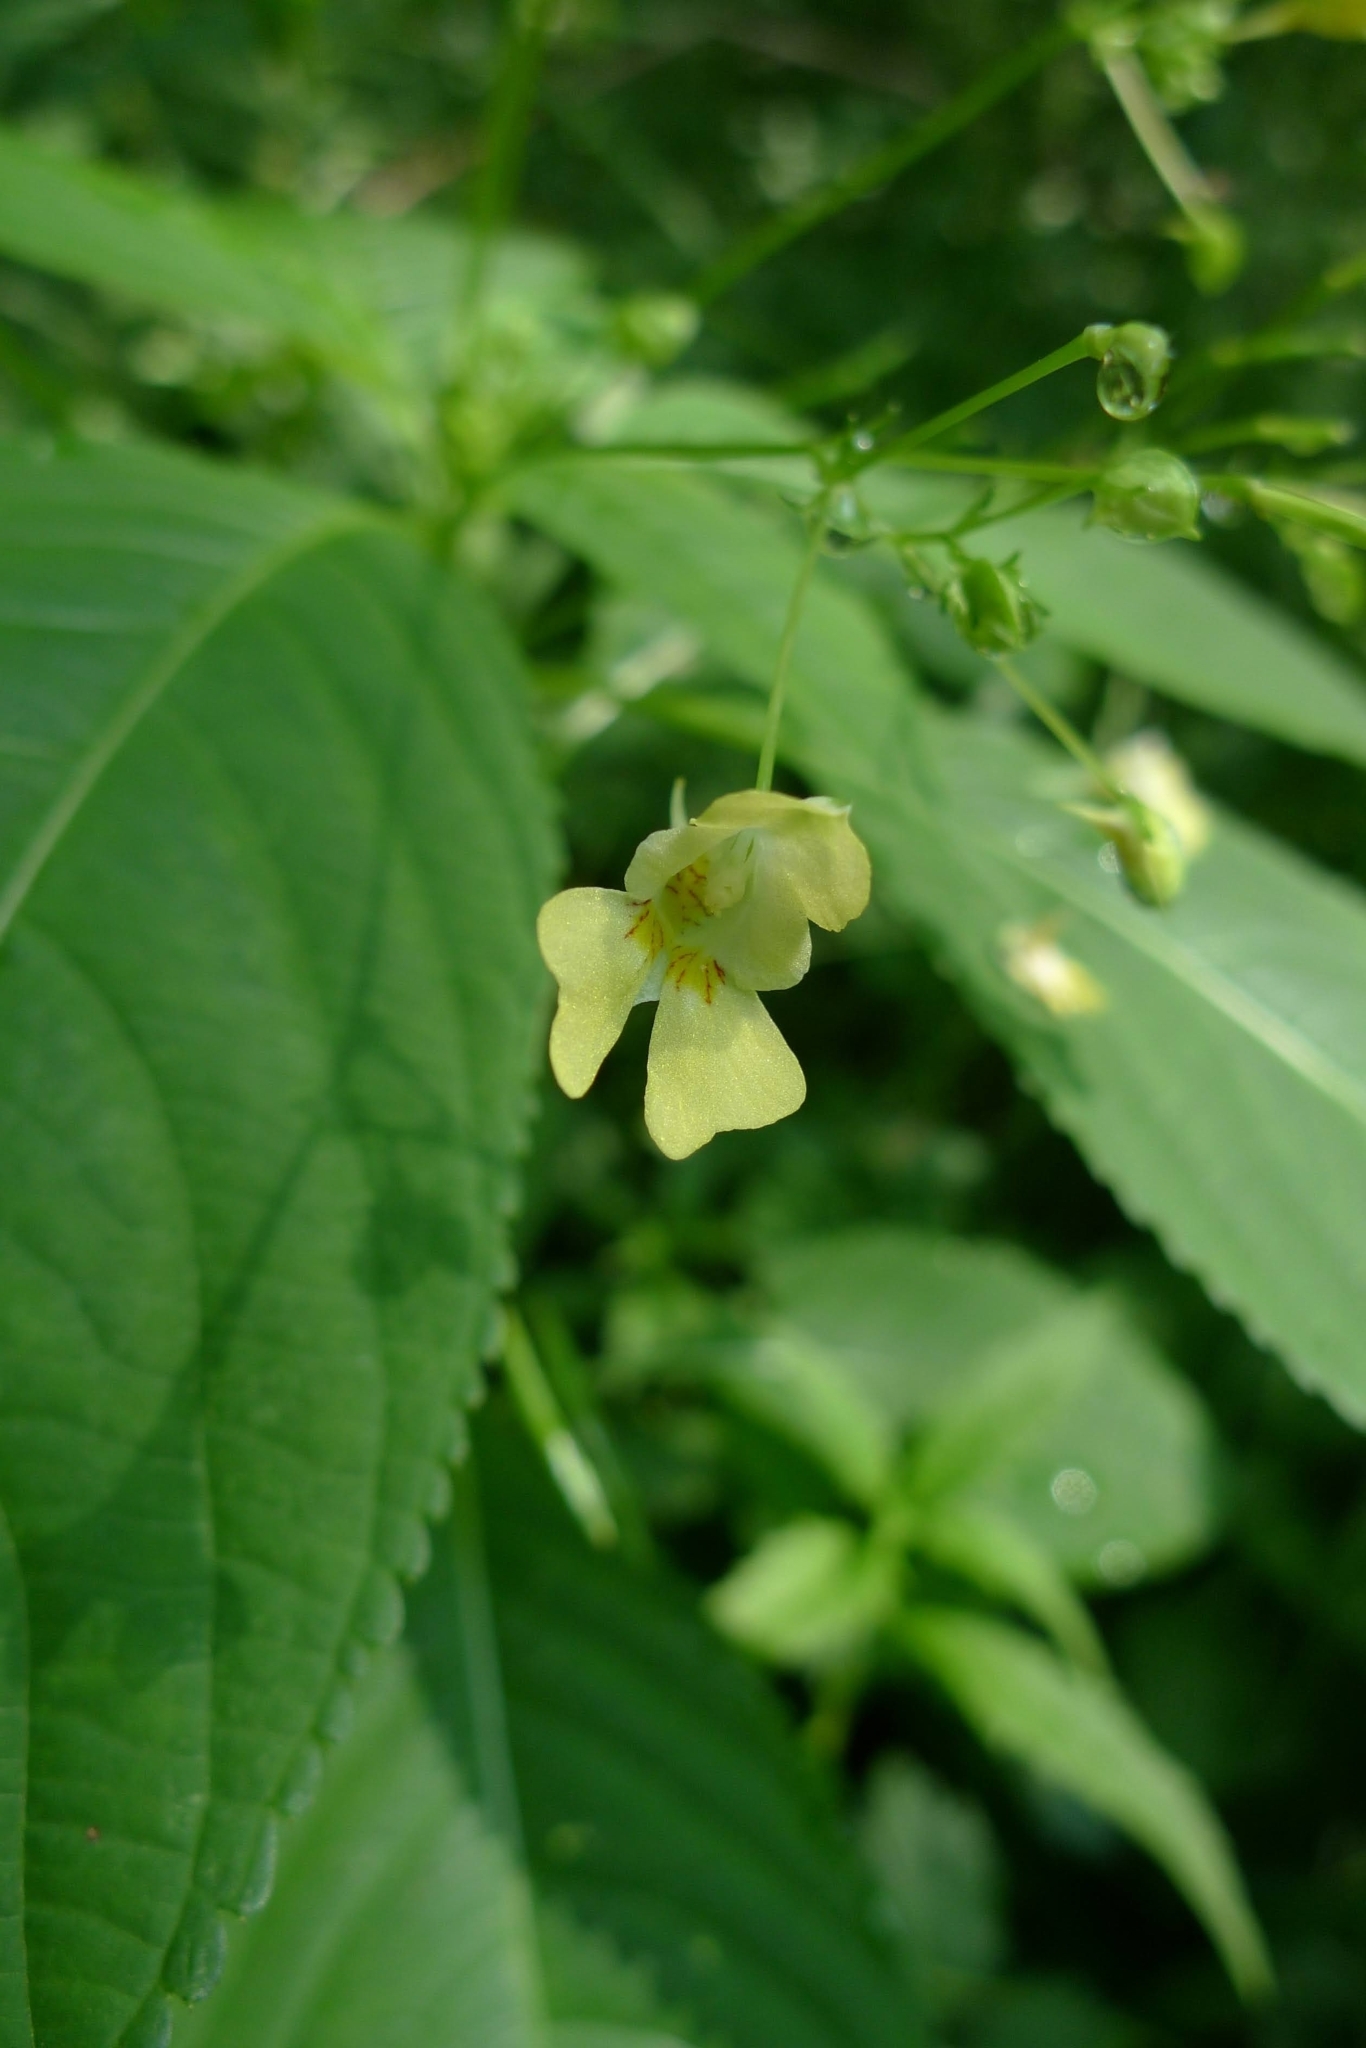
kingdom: Plantae
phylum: Tracheophyta
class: Magnoliopsida
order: Ericales
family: Balsaminaceae
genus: Impatiens
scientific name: Impatiens parviflora
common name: Small balsam
